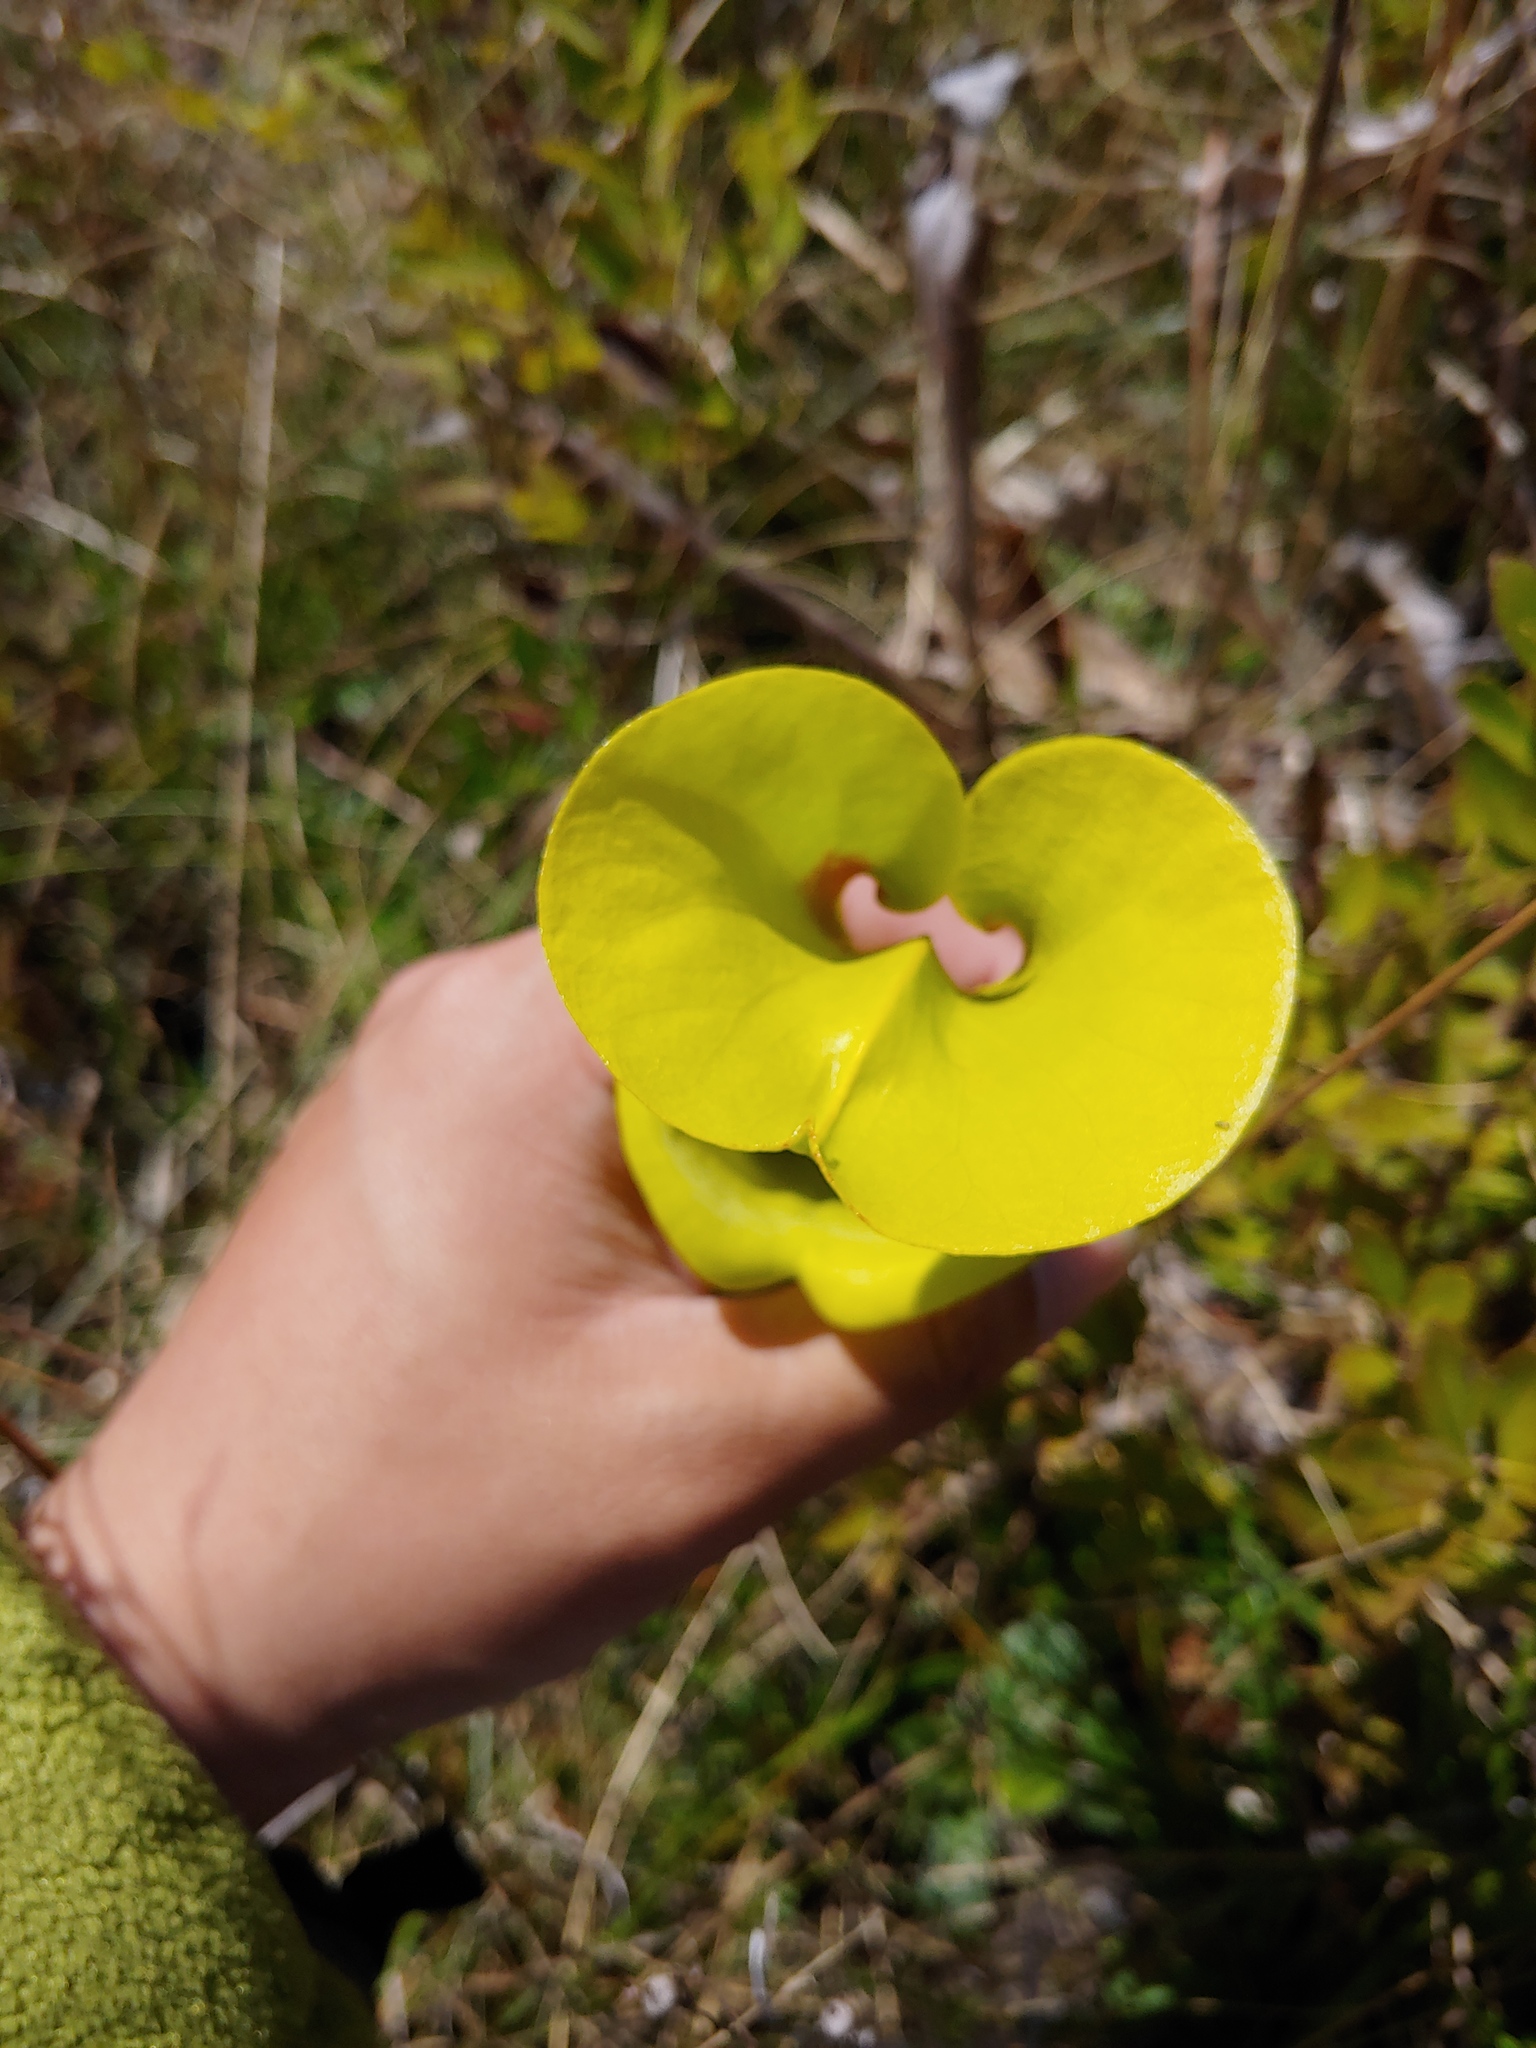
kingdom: Plantae
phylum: Tracheophyta
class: Magnoliopsida
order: Ericales
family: Sarraceniaceae
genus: Sarracenia
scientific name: Sarracenia flava
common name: Trumpets
